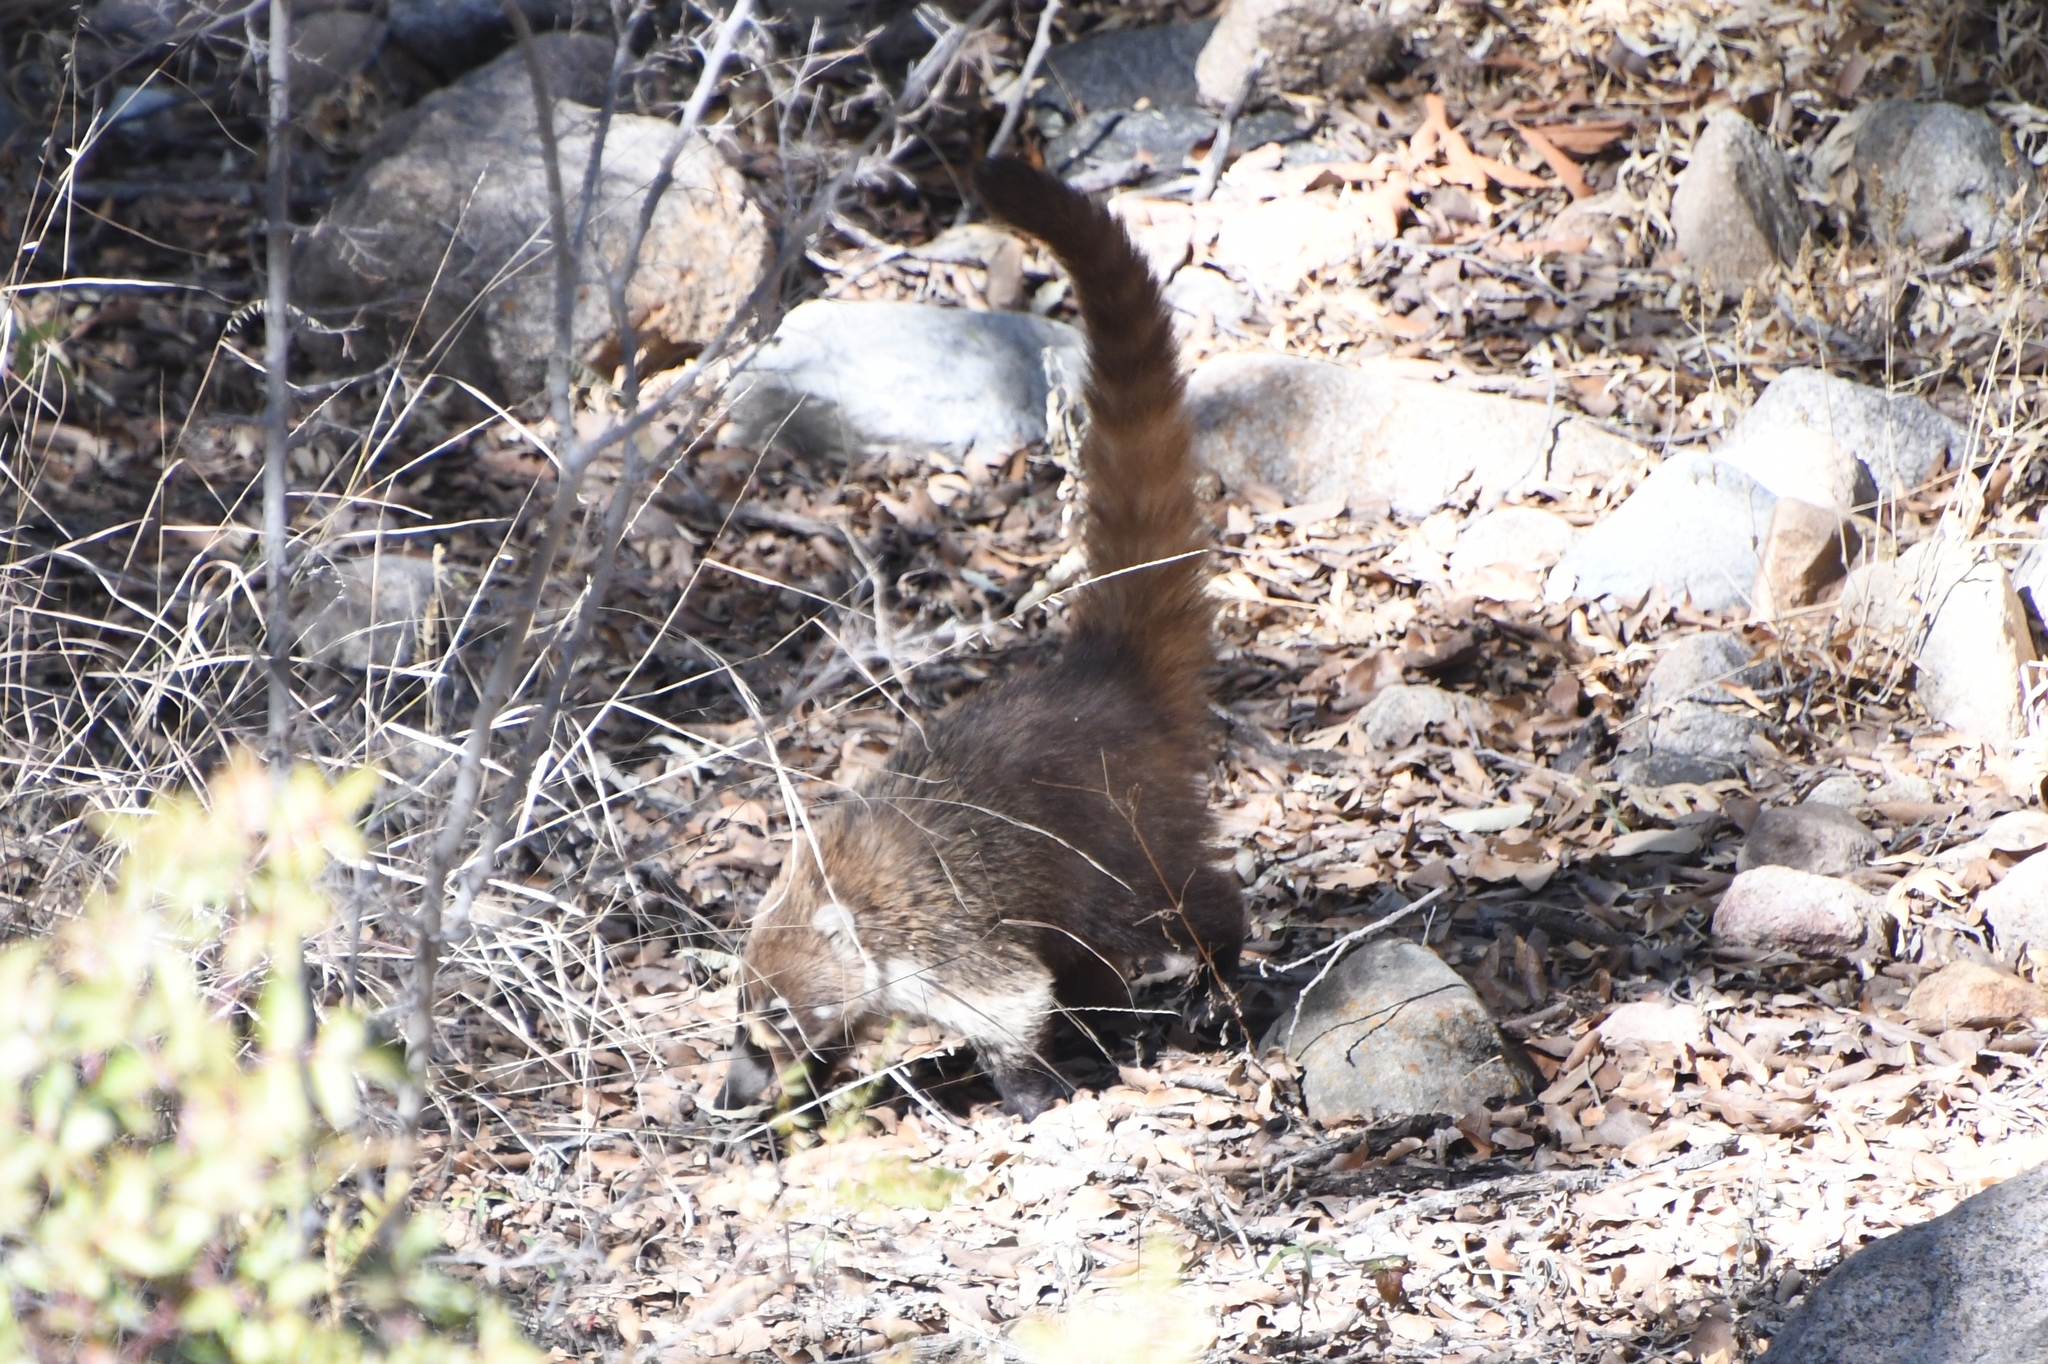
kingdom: Animalia
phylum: Chordata
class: Mammalia
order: Carnivora
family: Procyonidae
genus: Nasua
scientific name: Nasua narica
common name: White-nosed coati
